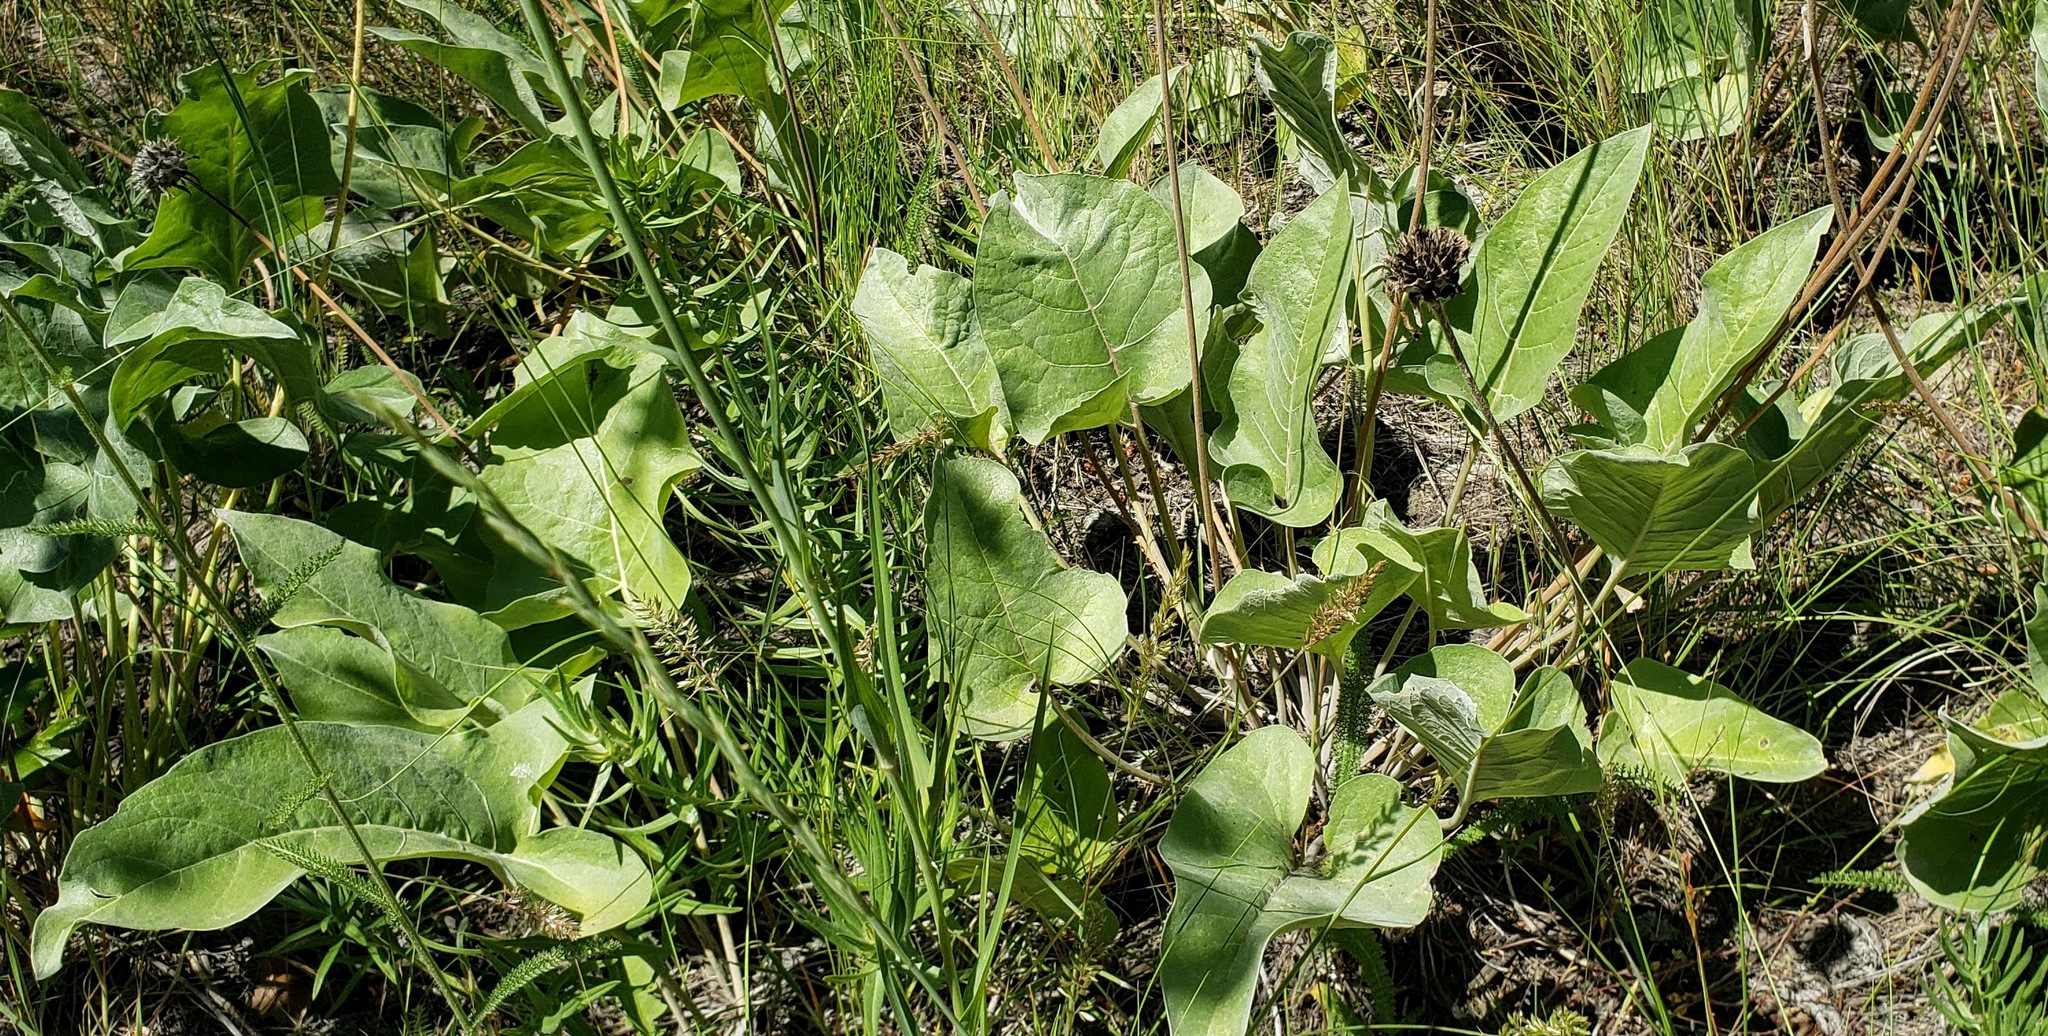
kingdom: Plantae
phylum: Tracheophyta
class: Magnoliopsida
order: Asterales
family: Asteraceae
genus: Wyethia
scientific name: Wyethia sagittata
